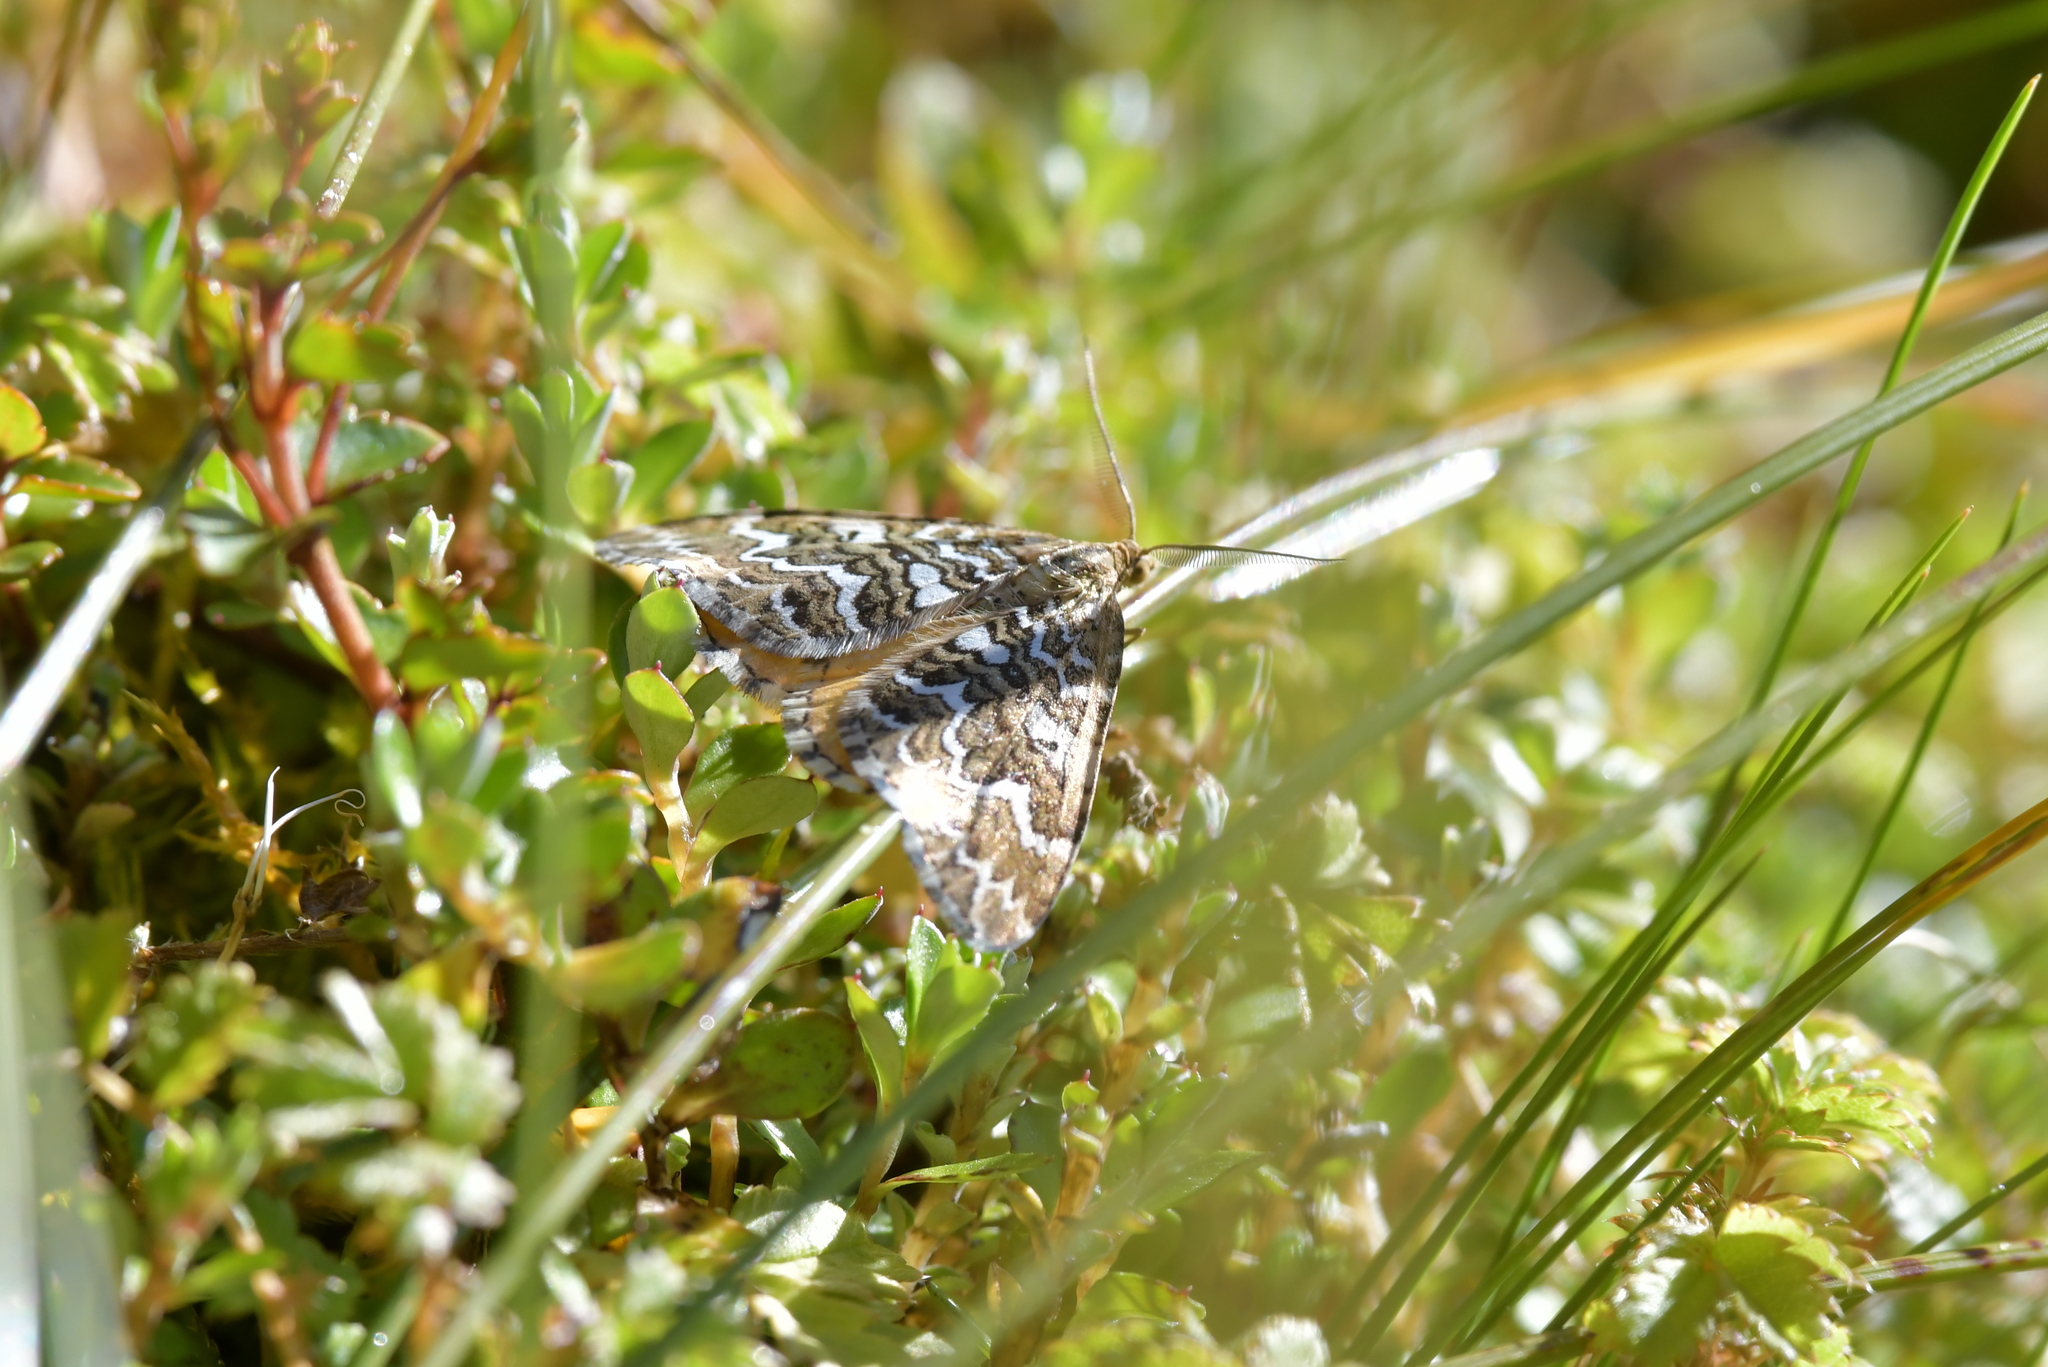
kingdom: Animalia
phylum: Arthropoda
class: Insecta
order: Lepidoptera
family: Geometridae
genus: Asaphodes
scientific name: Asaphodes clarata
